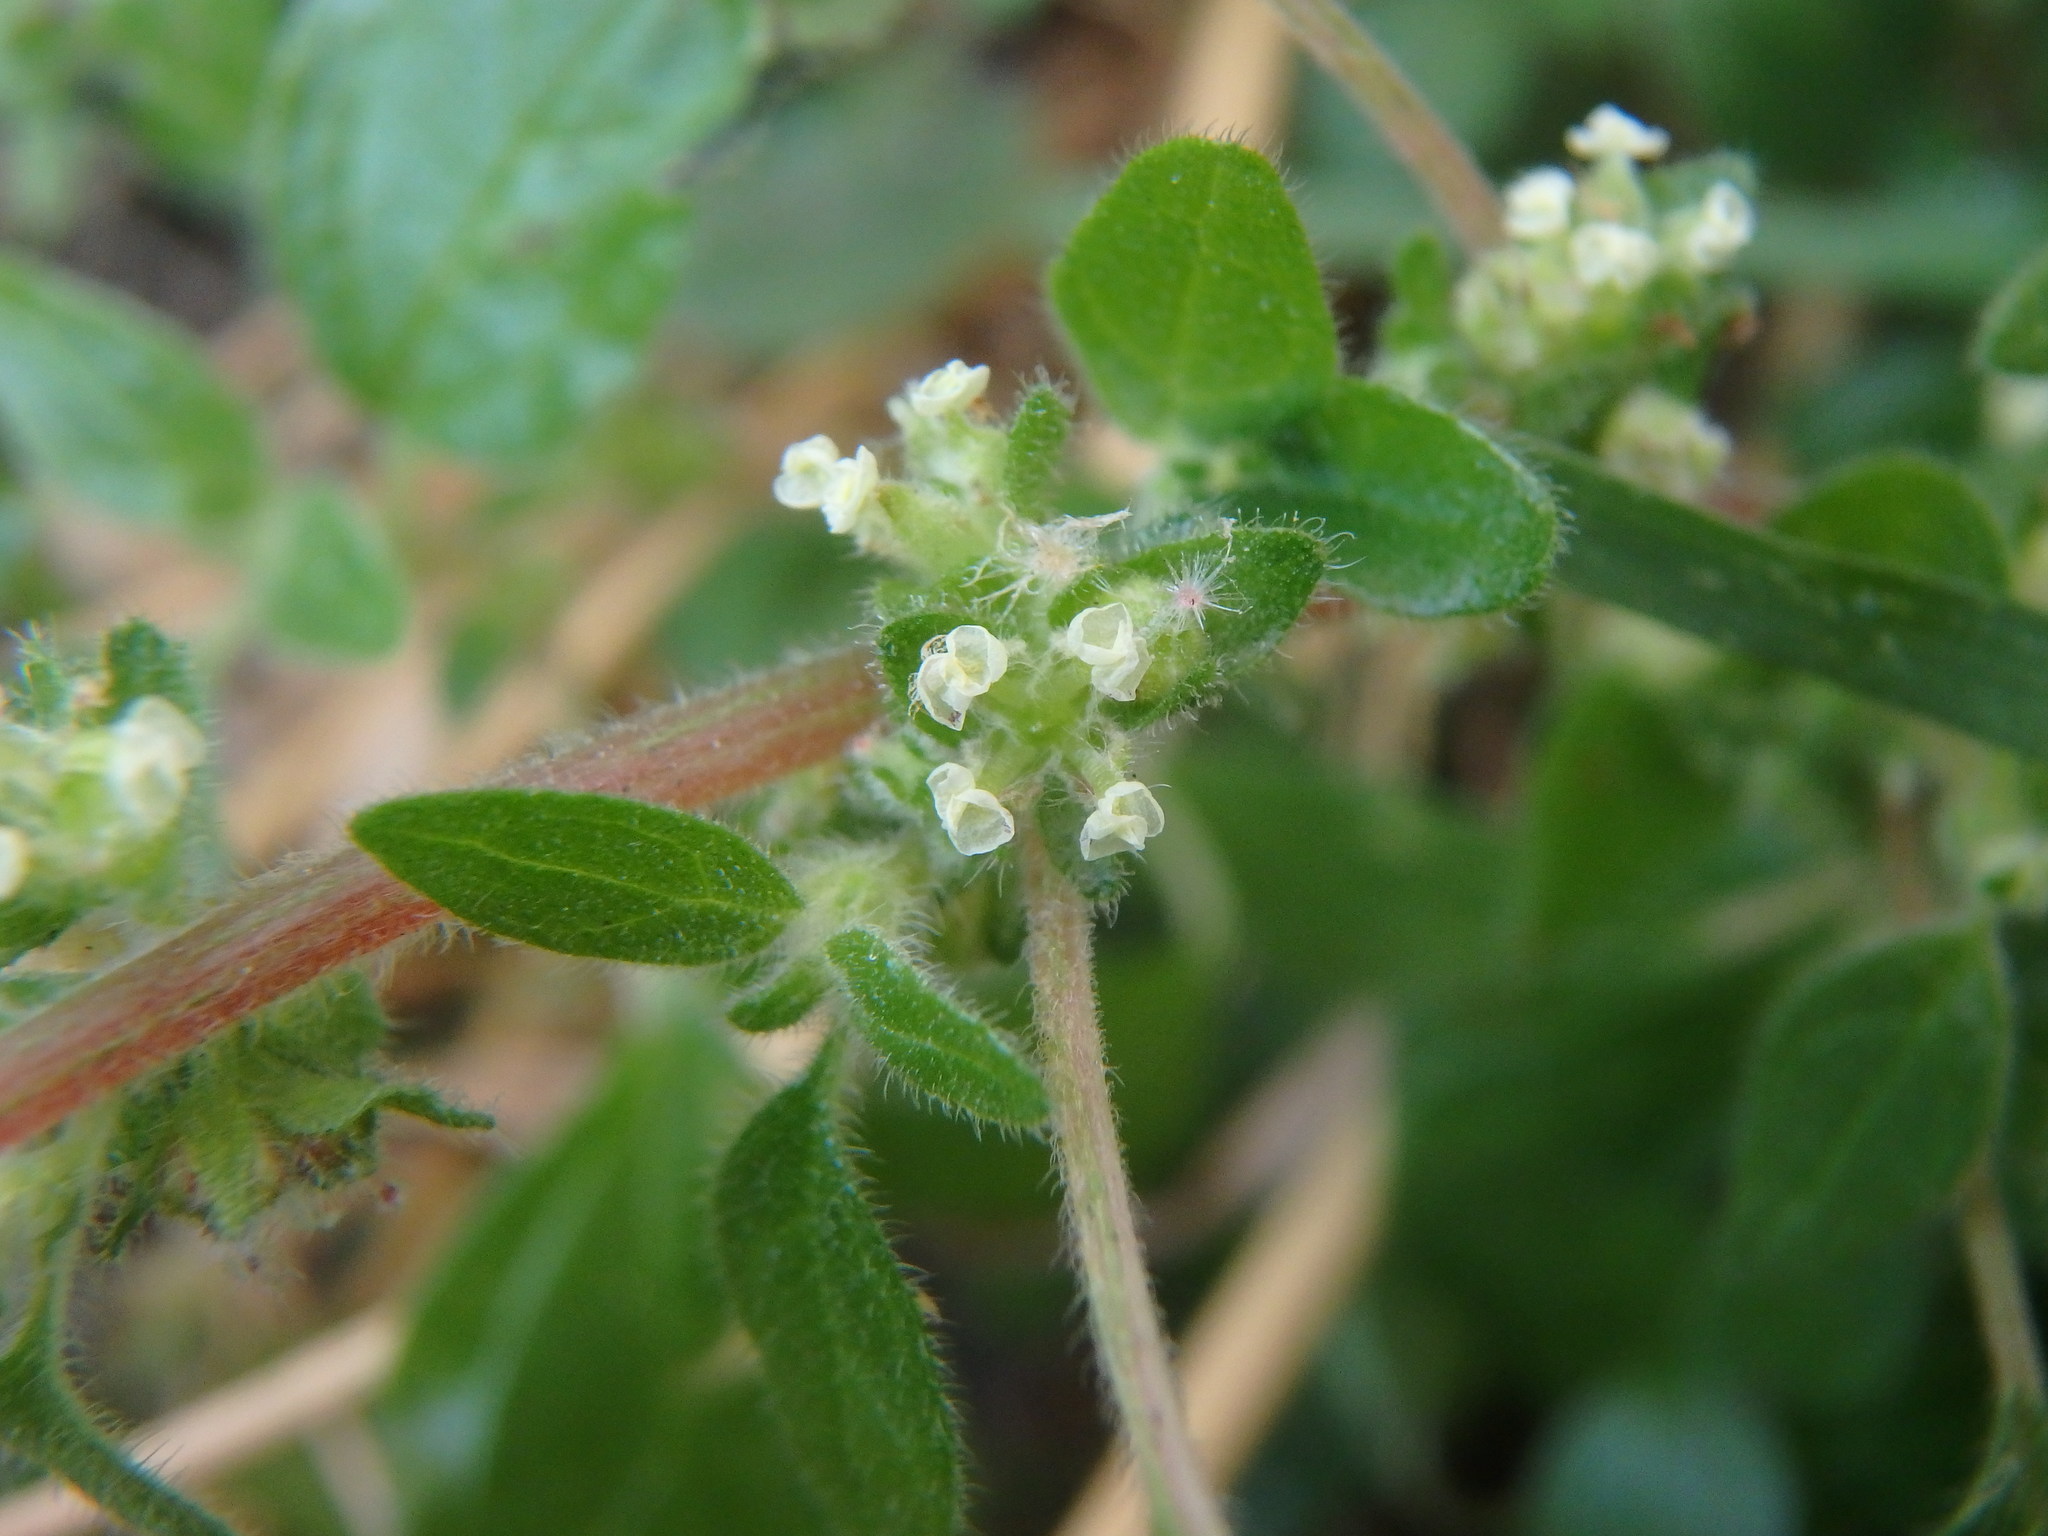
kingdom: Plantae
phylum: Tracheophyta
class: Magnoliopsida
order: Rosales
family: Urticaceae
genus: Parietaria
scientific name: Parietaria judaica
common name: Pellitory-of-the-wall
